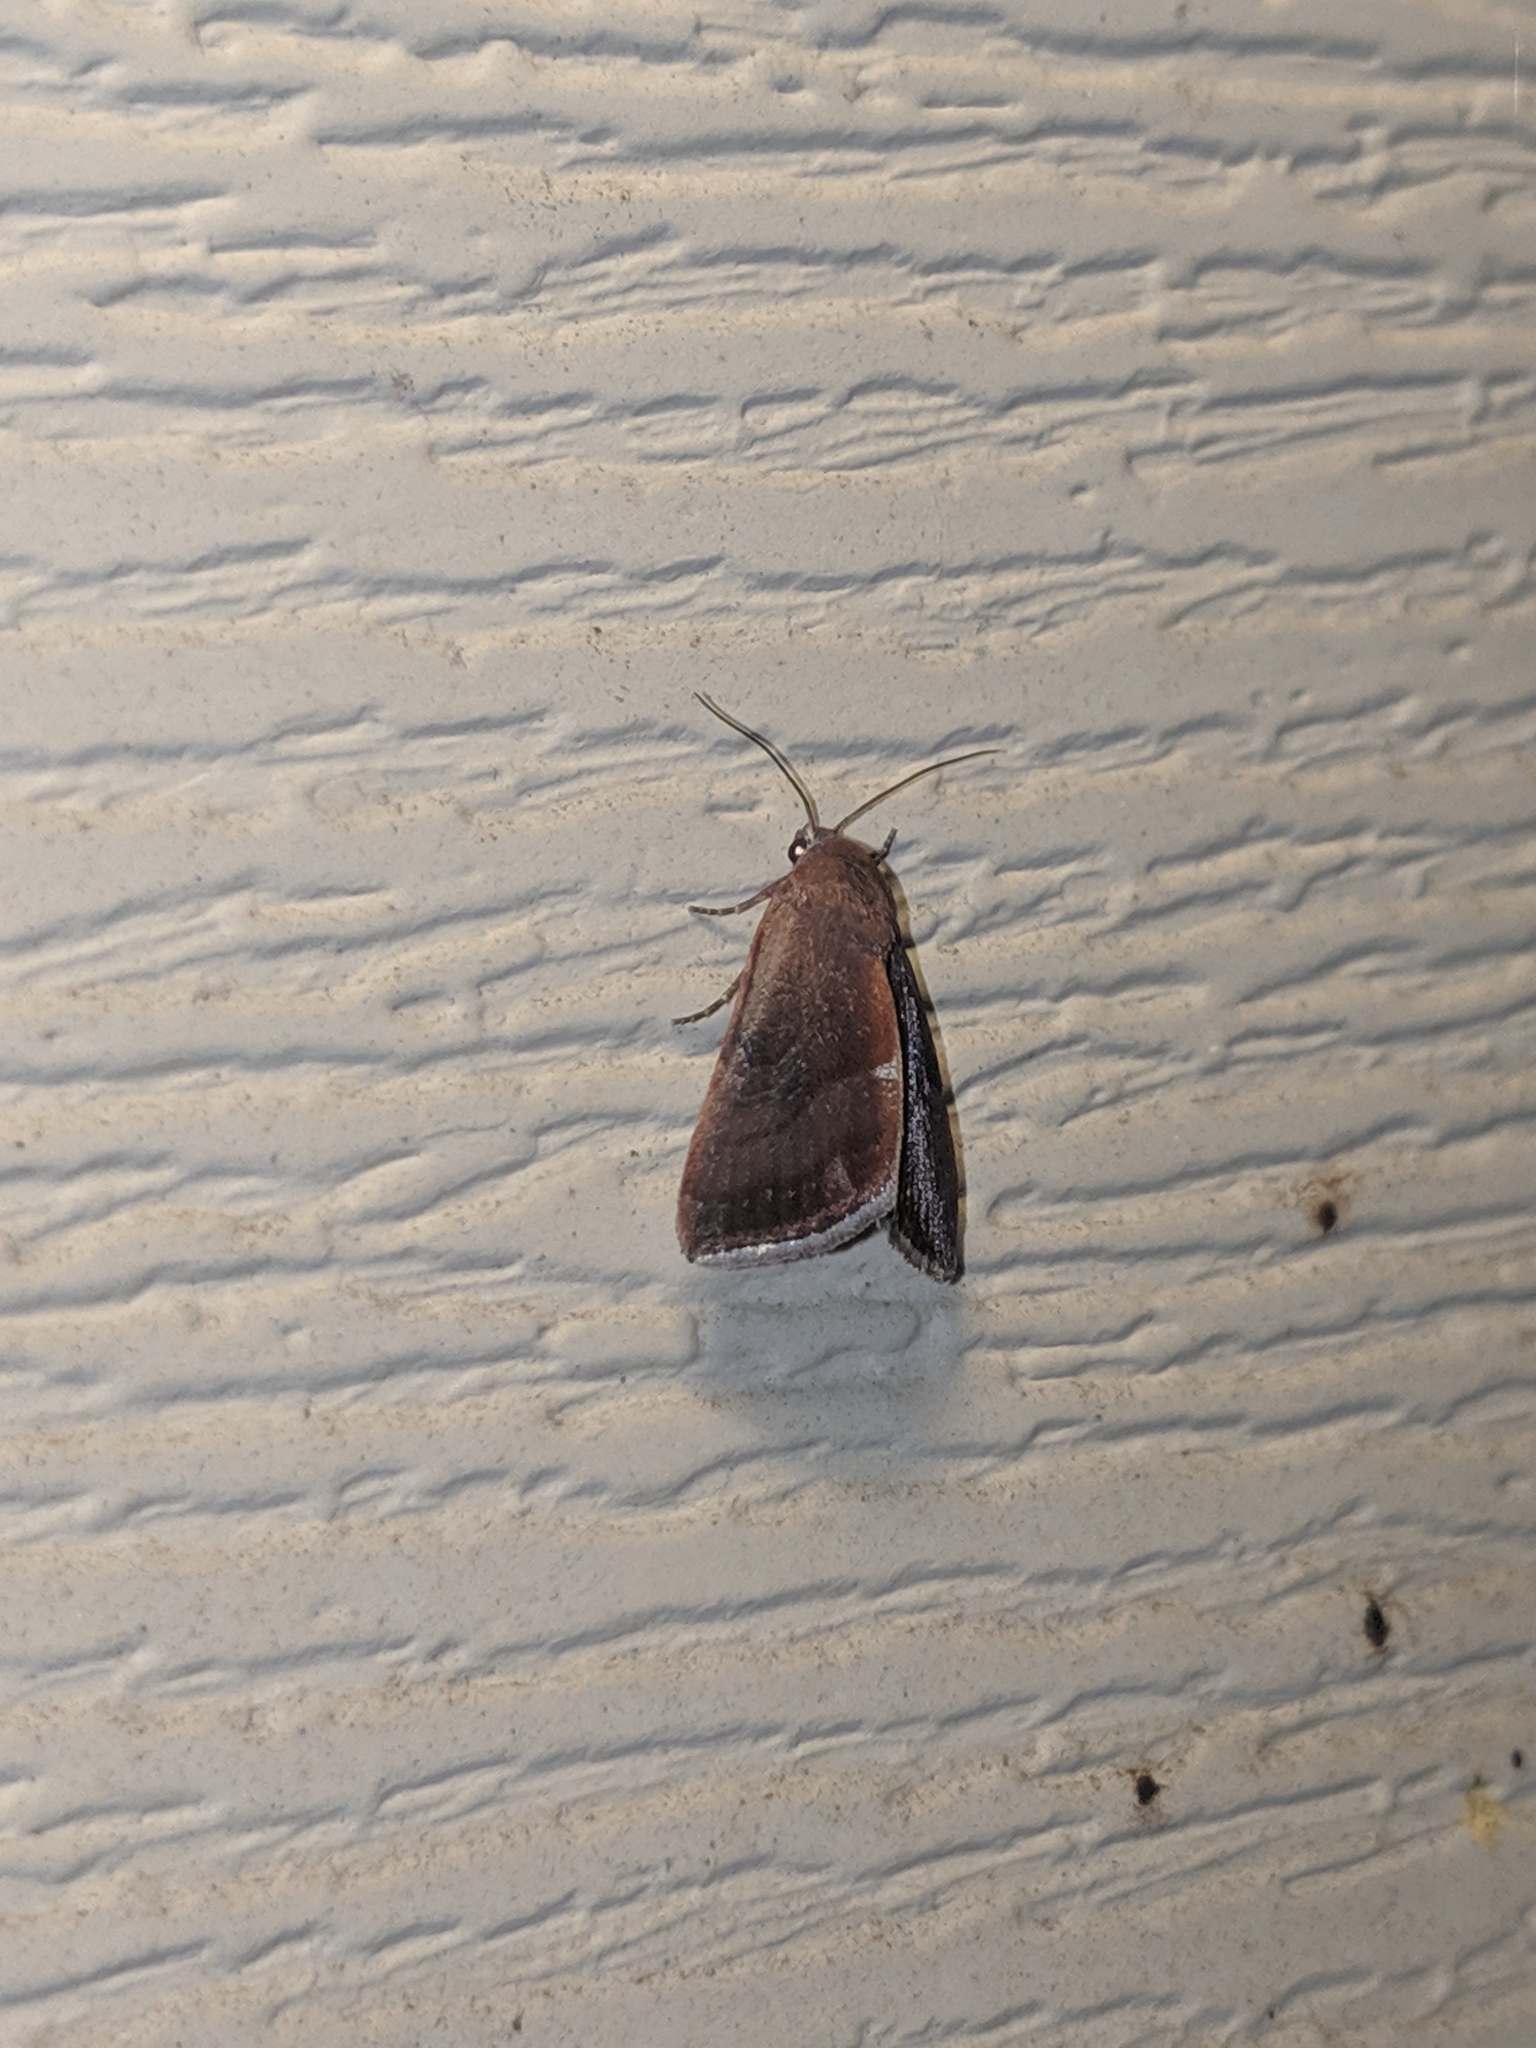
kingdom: Animalia
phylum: Arthropoda
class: Insecta
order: Lepidoptera
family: Noctuidae
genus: Galgula
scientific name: Galgula partita
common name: Wedgeling
